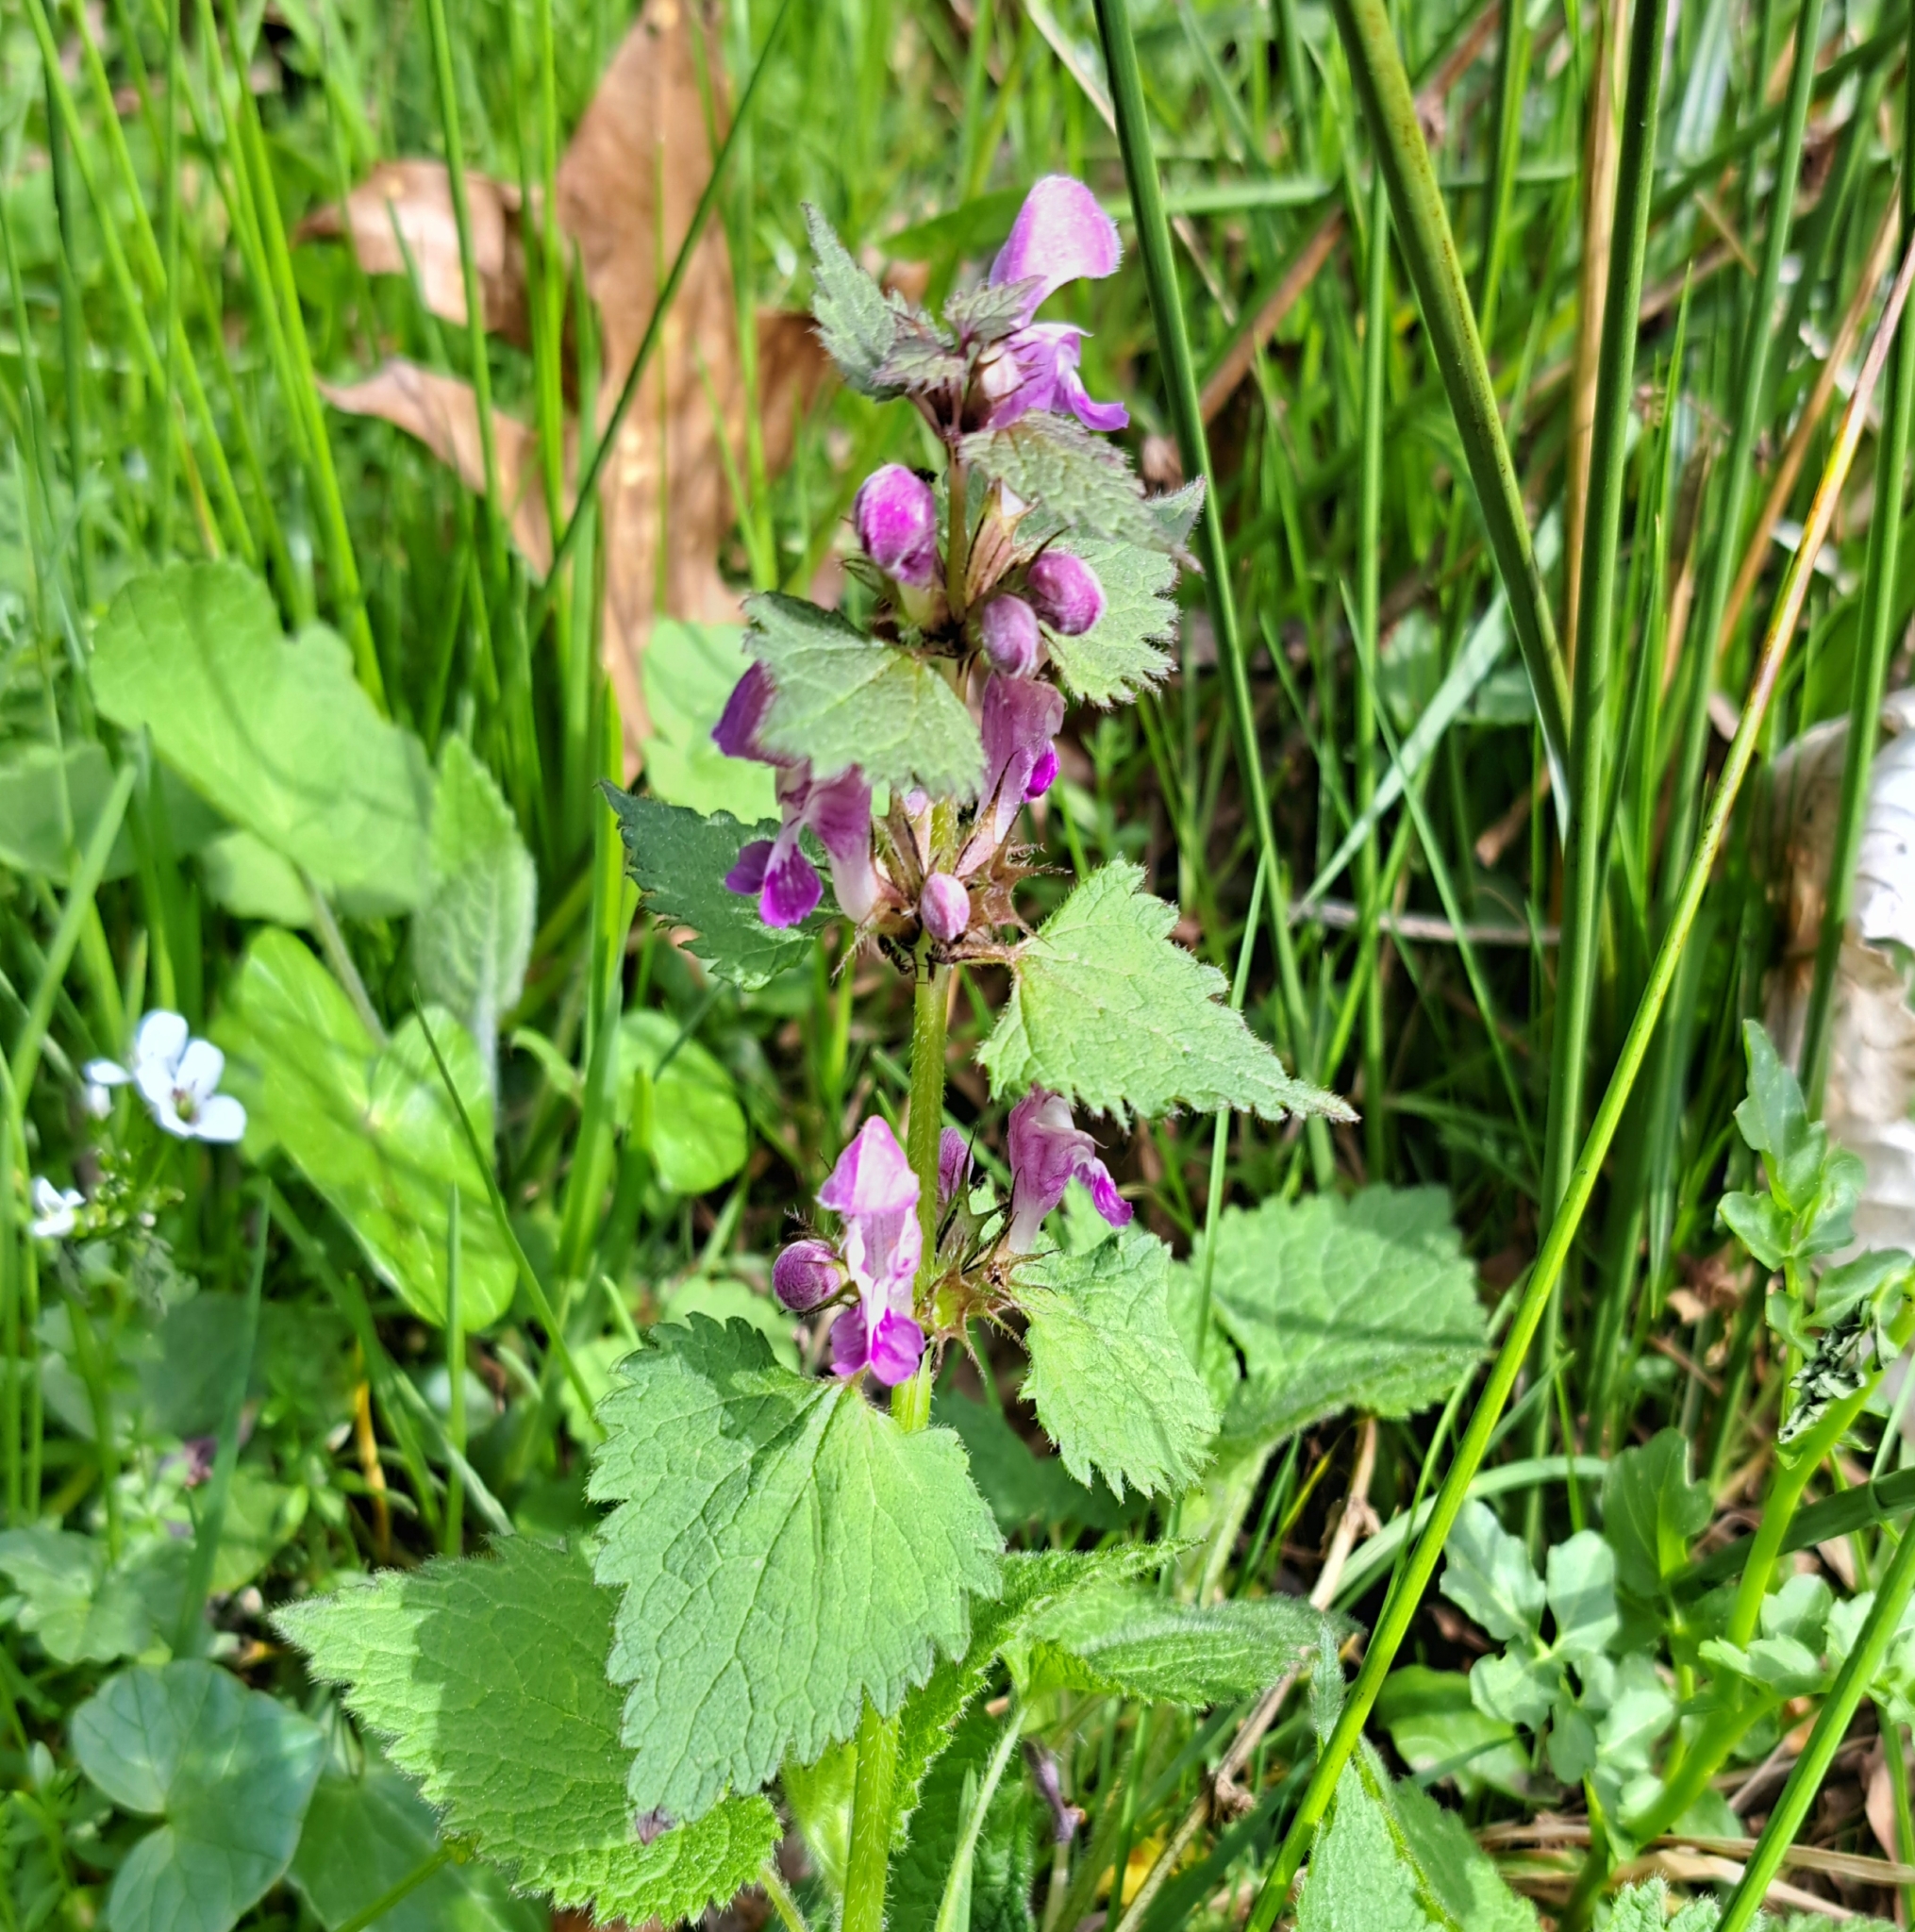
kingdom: Plantae
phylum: Tracheophyta
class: Magnoliopsida
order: Lamiales
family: Lamiaceae
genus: Lamium
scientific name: Lamium maculatum
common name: Spotted dead-nettle
